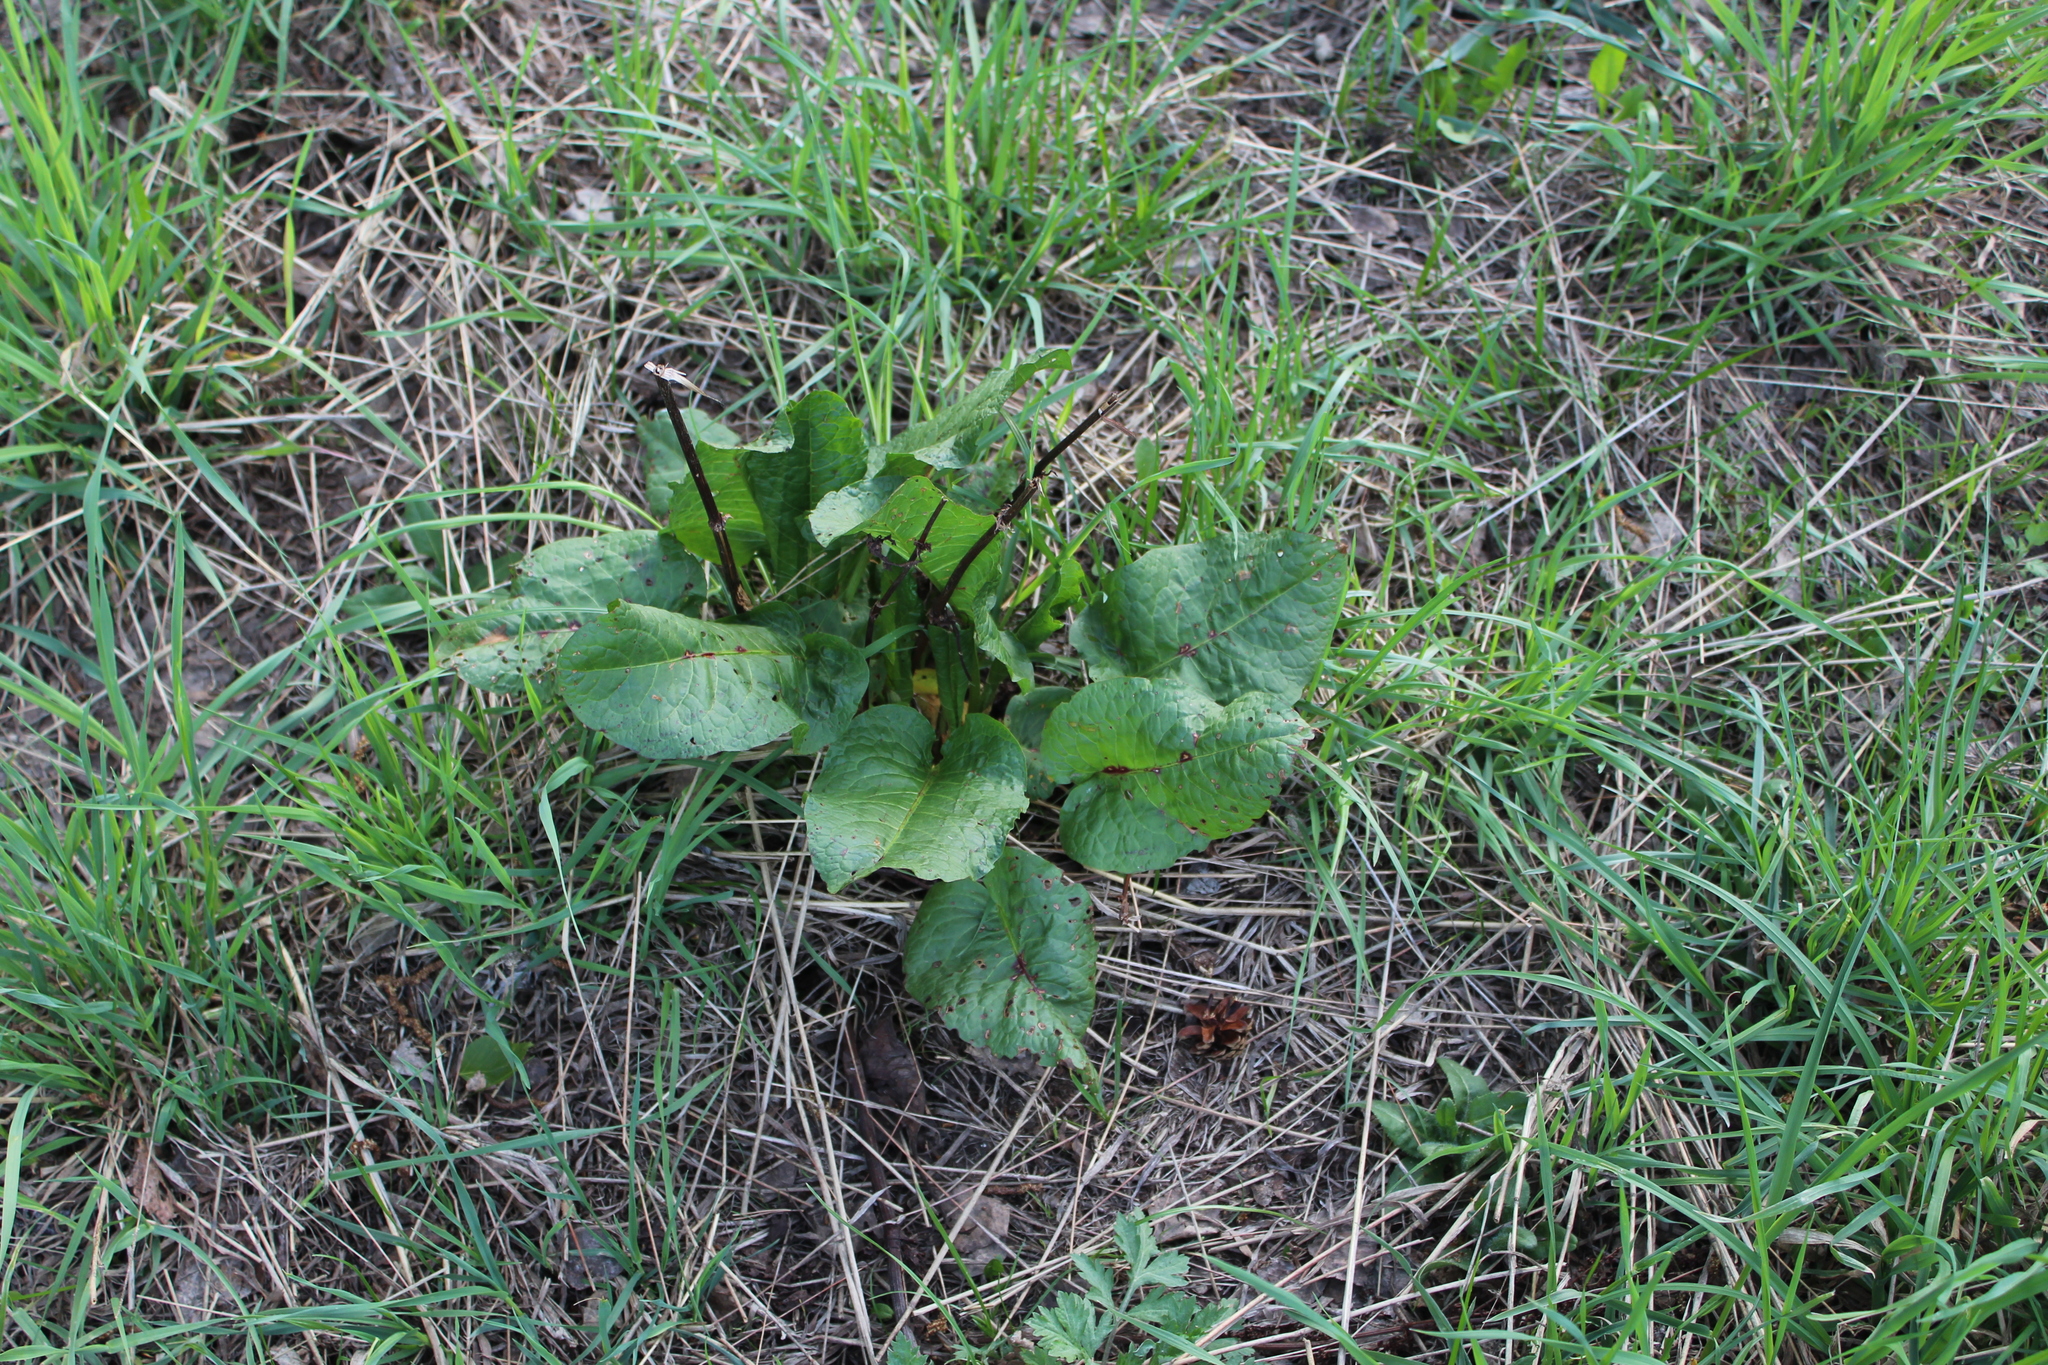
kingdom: Plantae
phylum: Tracheophyta
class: Magnoliopsida
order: Caryophyllales
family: Polygonaceae
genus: Rumex
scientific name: Rumex obtusifolius
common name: Bitter dock
